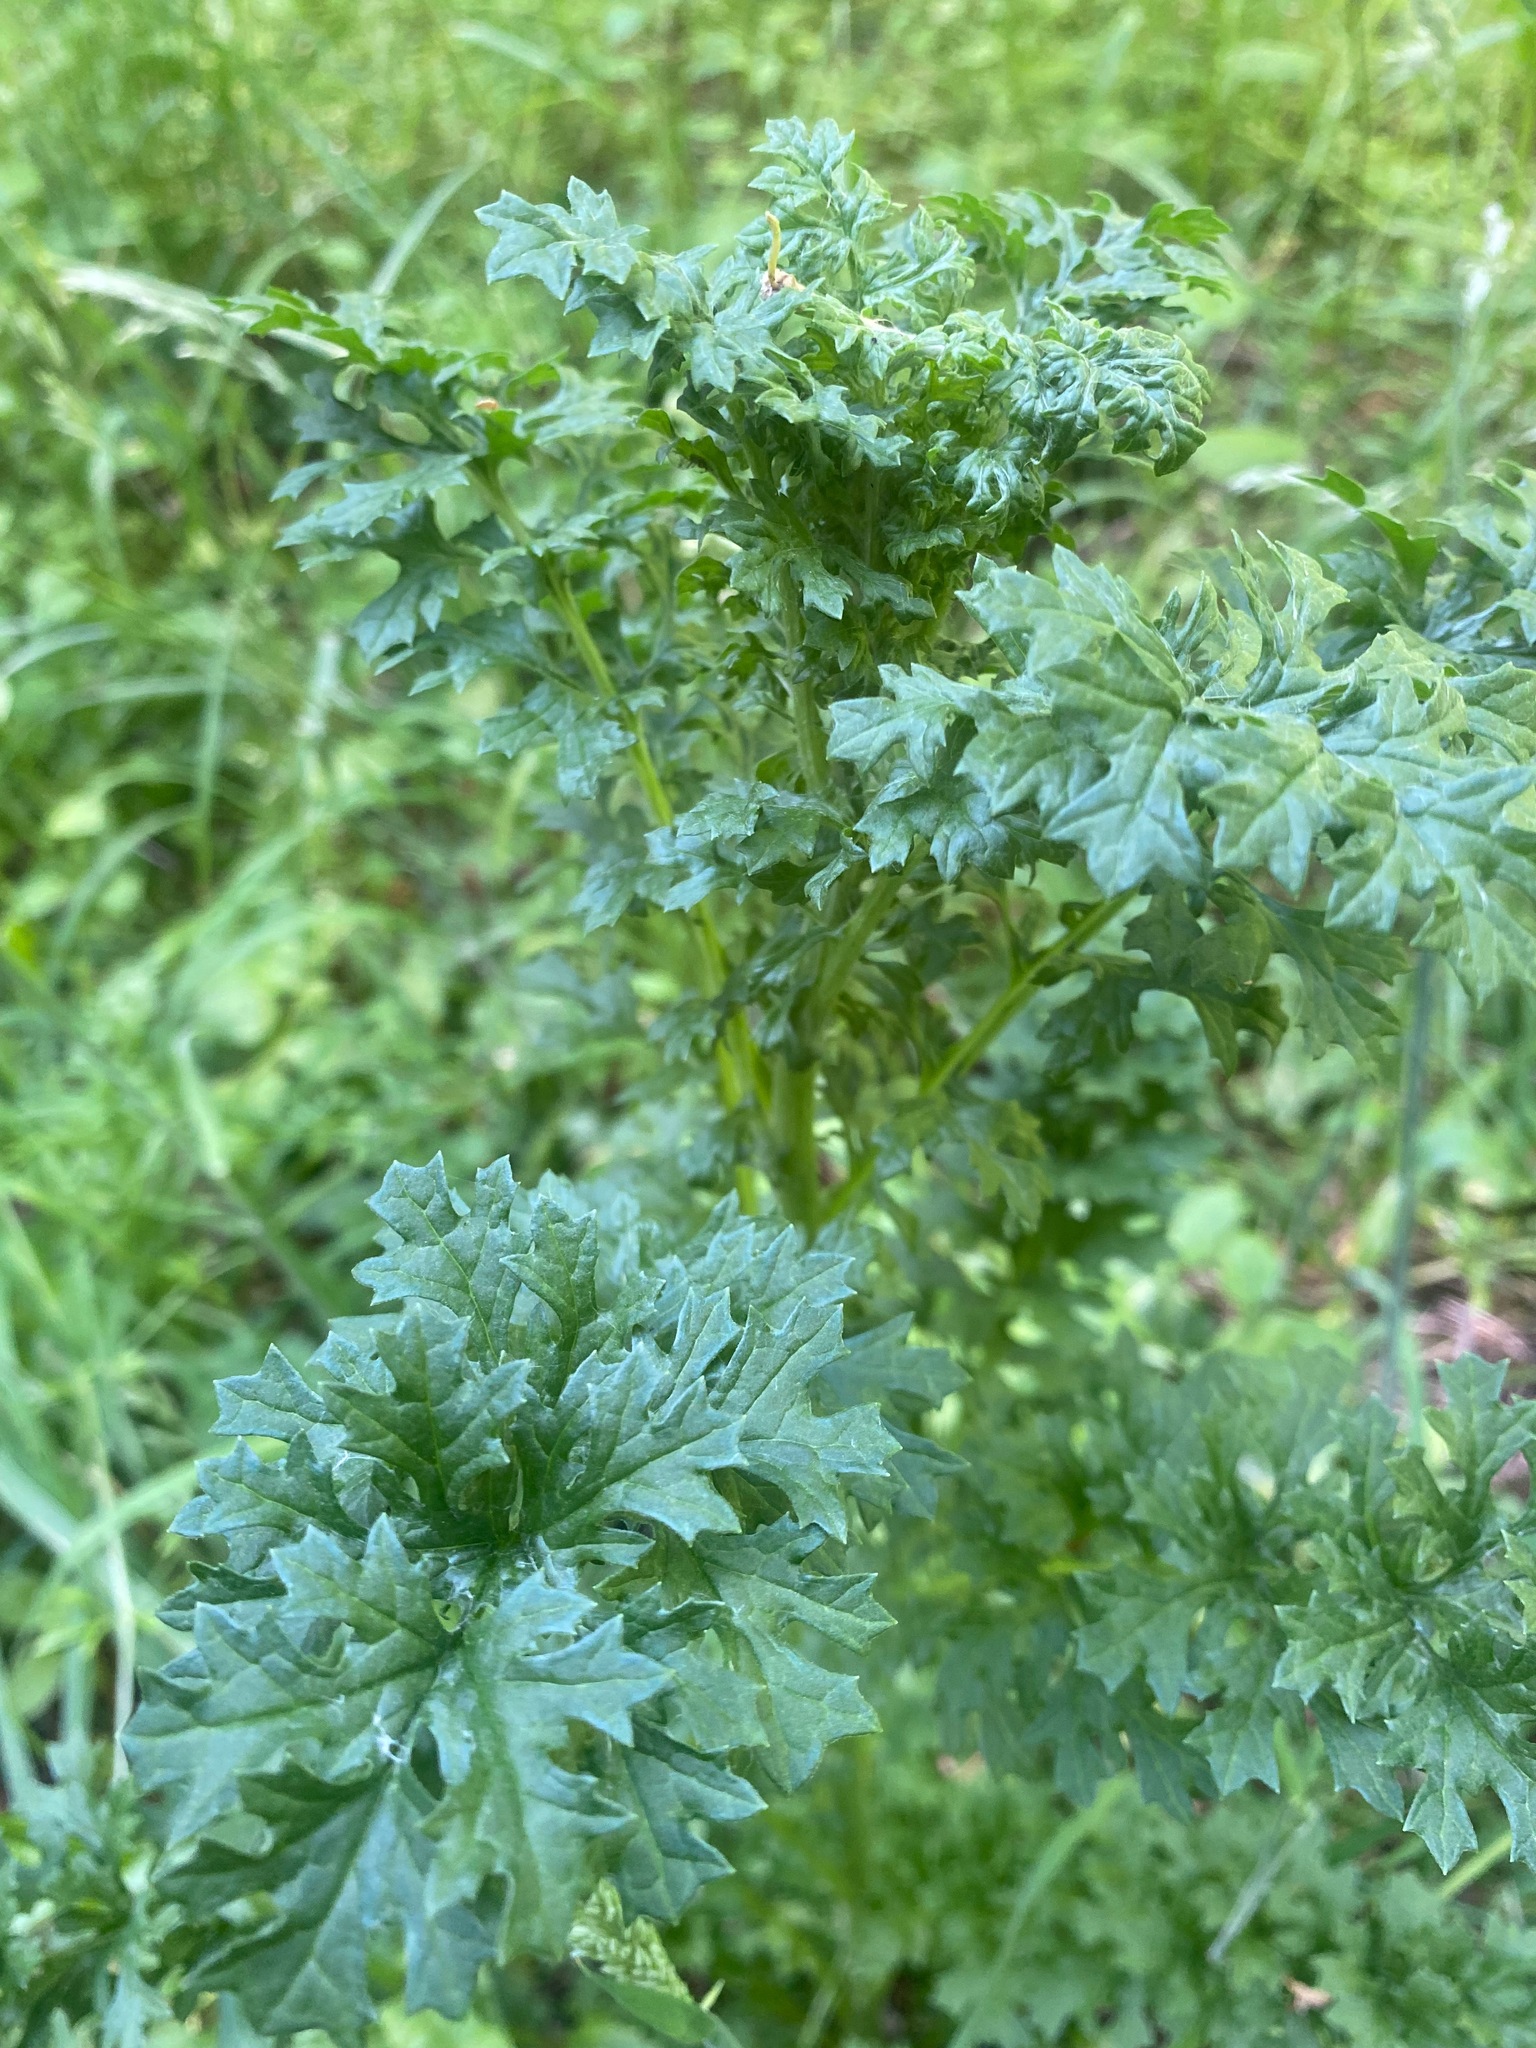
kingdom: Plantae
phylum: Tracheophyta
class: Magnoliopsida
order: Asterales
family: Asteraceae
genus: Jacobaea
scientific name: Jacobaea vulgaris
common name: Stinking willie
